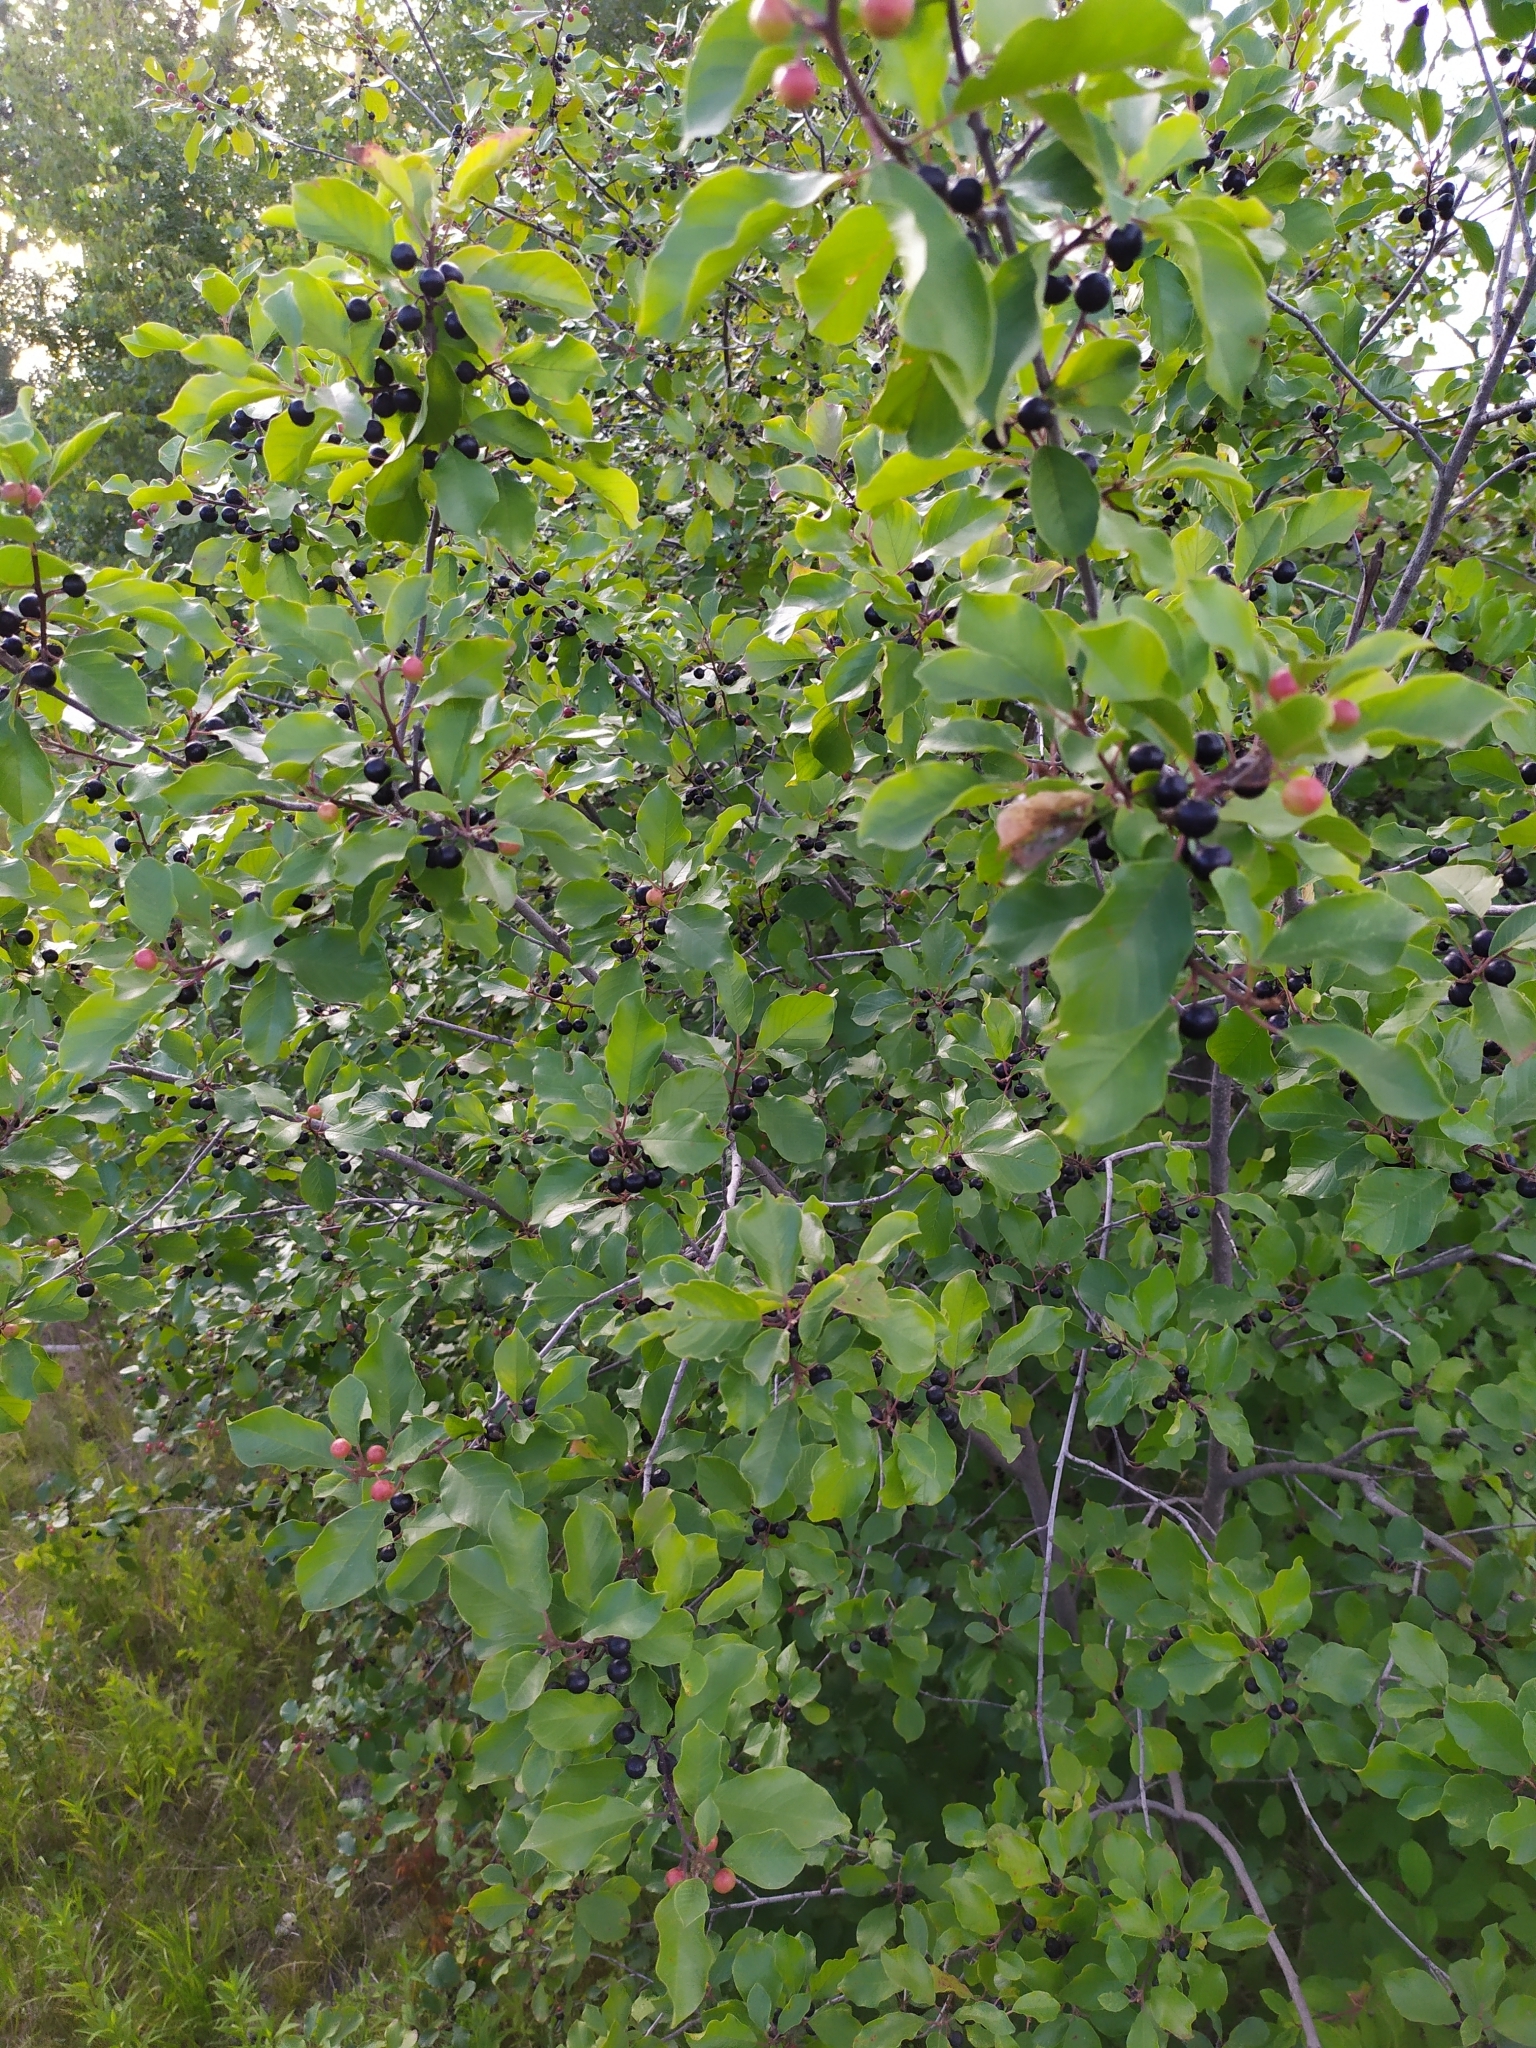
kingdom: Plantae
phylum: Tracheophyta
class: Magnoliopsida
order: Rosales
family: Rhamnaceae
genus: Frangula
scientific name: Frangula alnus
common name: Alder buckthorn
